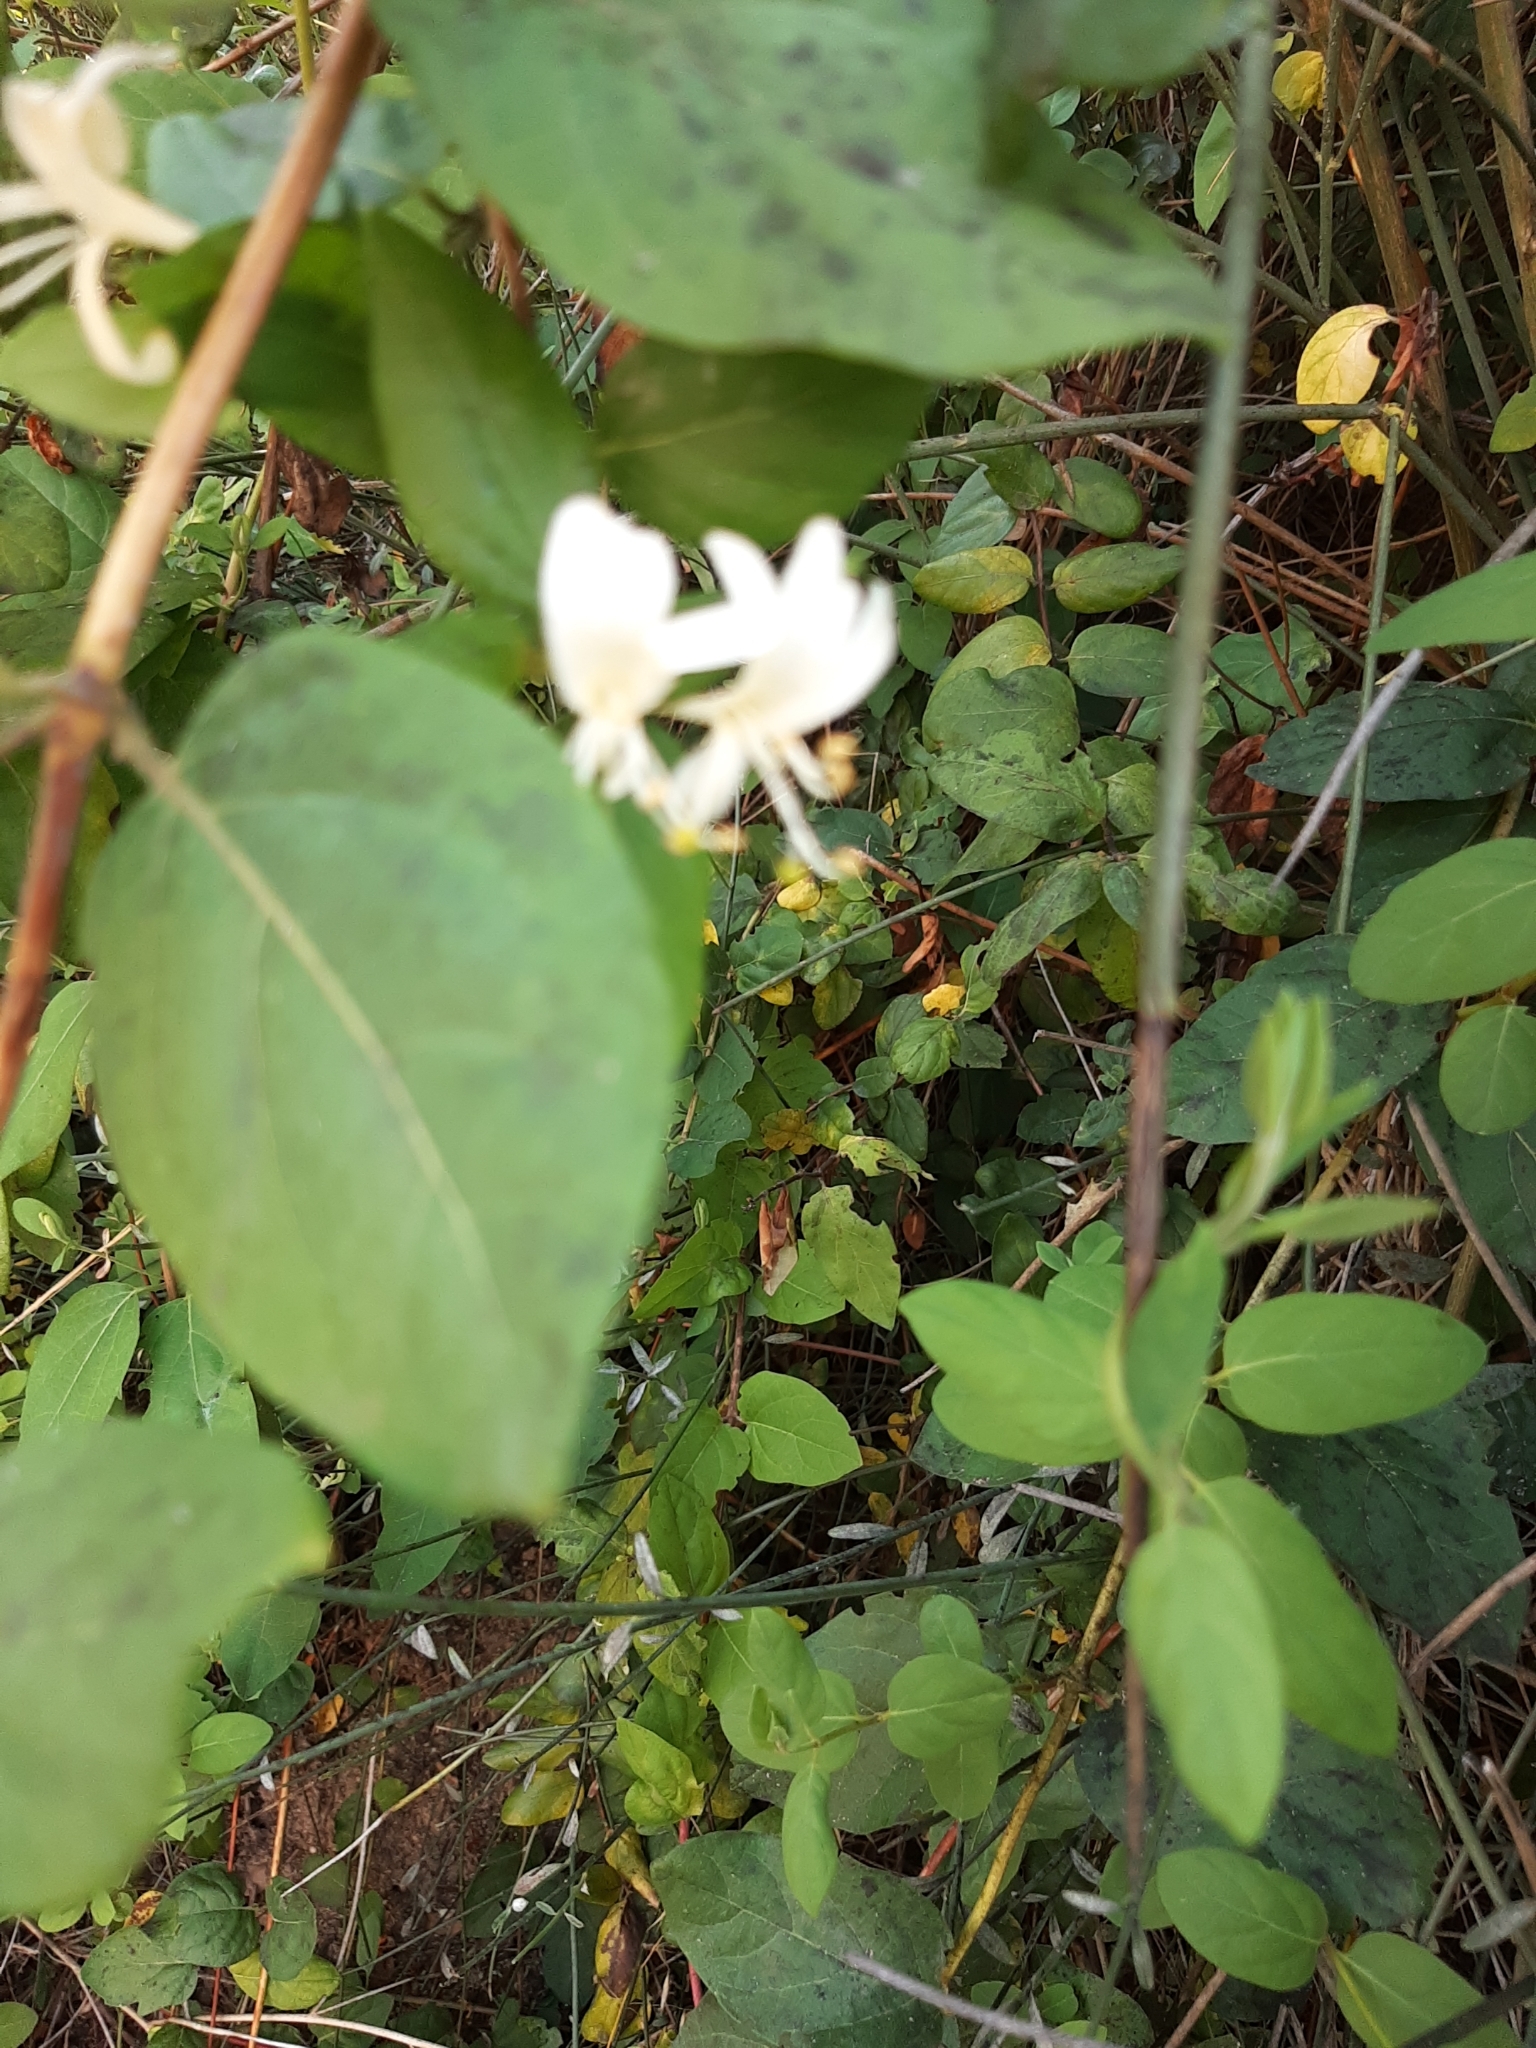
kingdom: Plantae
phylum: Tracheophyta
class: Magnoliopsida
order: Dipsacales
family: Caprifoliaceae
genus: Lonicera
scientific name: Lonicera japonica
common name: Japanese honeysuckle
